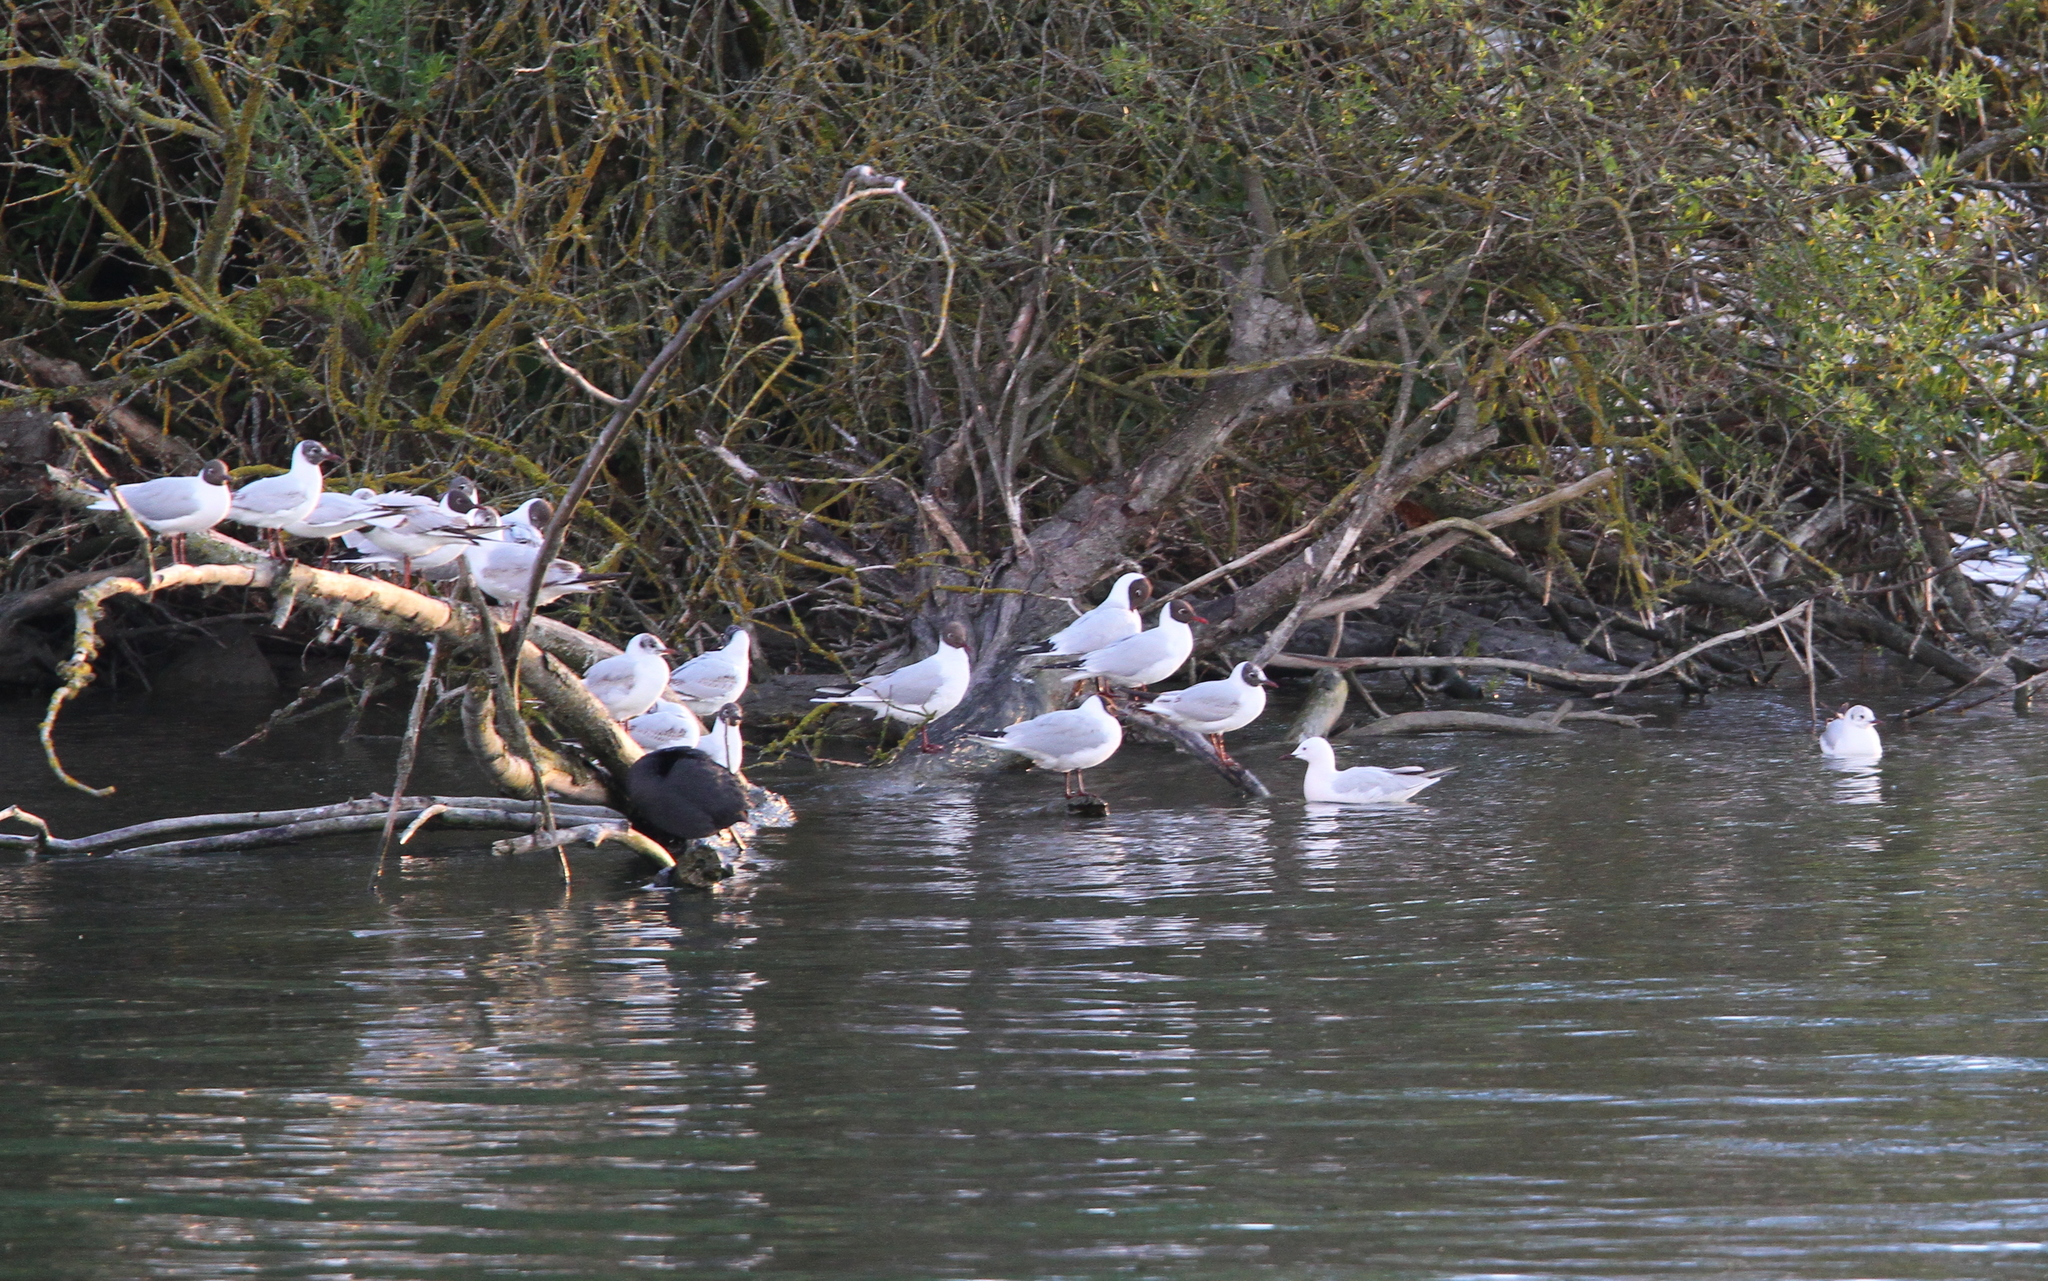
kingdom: Animalia
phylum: Chordata
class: Aves
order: Charadriiformes
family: Laridae
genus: Chroicocephalus
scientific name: Chroicocephalus genei
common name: Slender-billed gull
